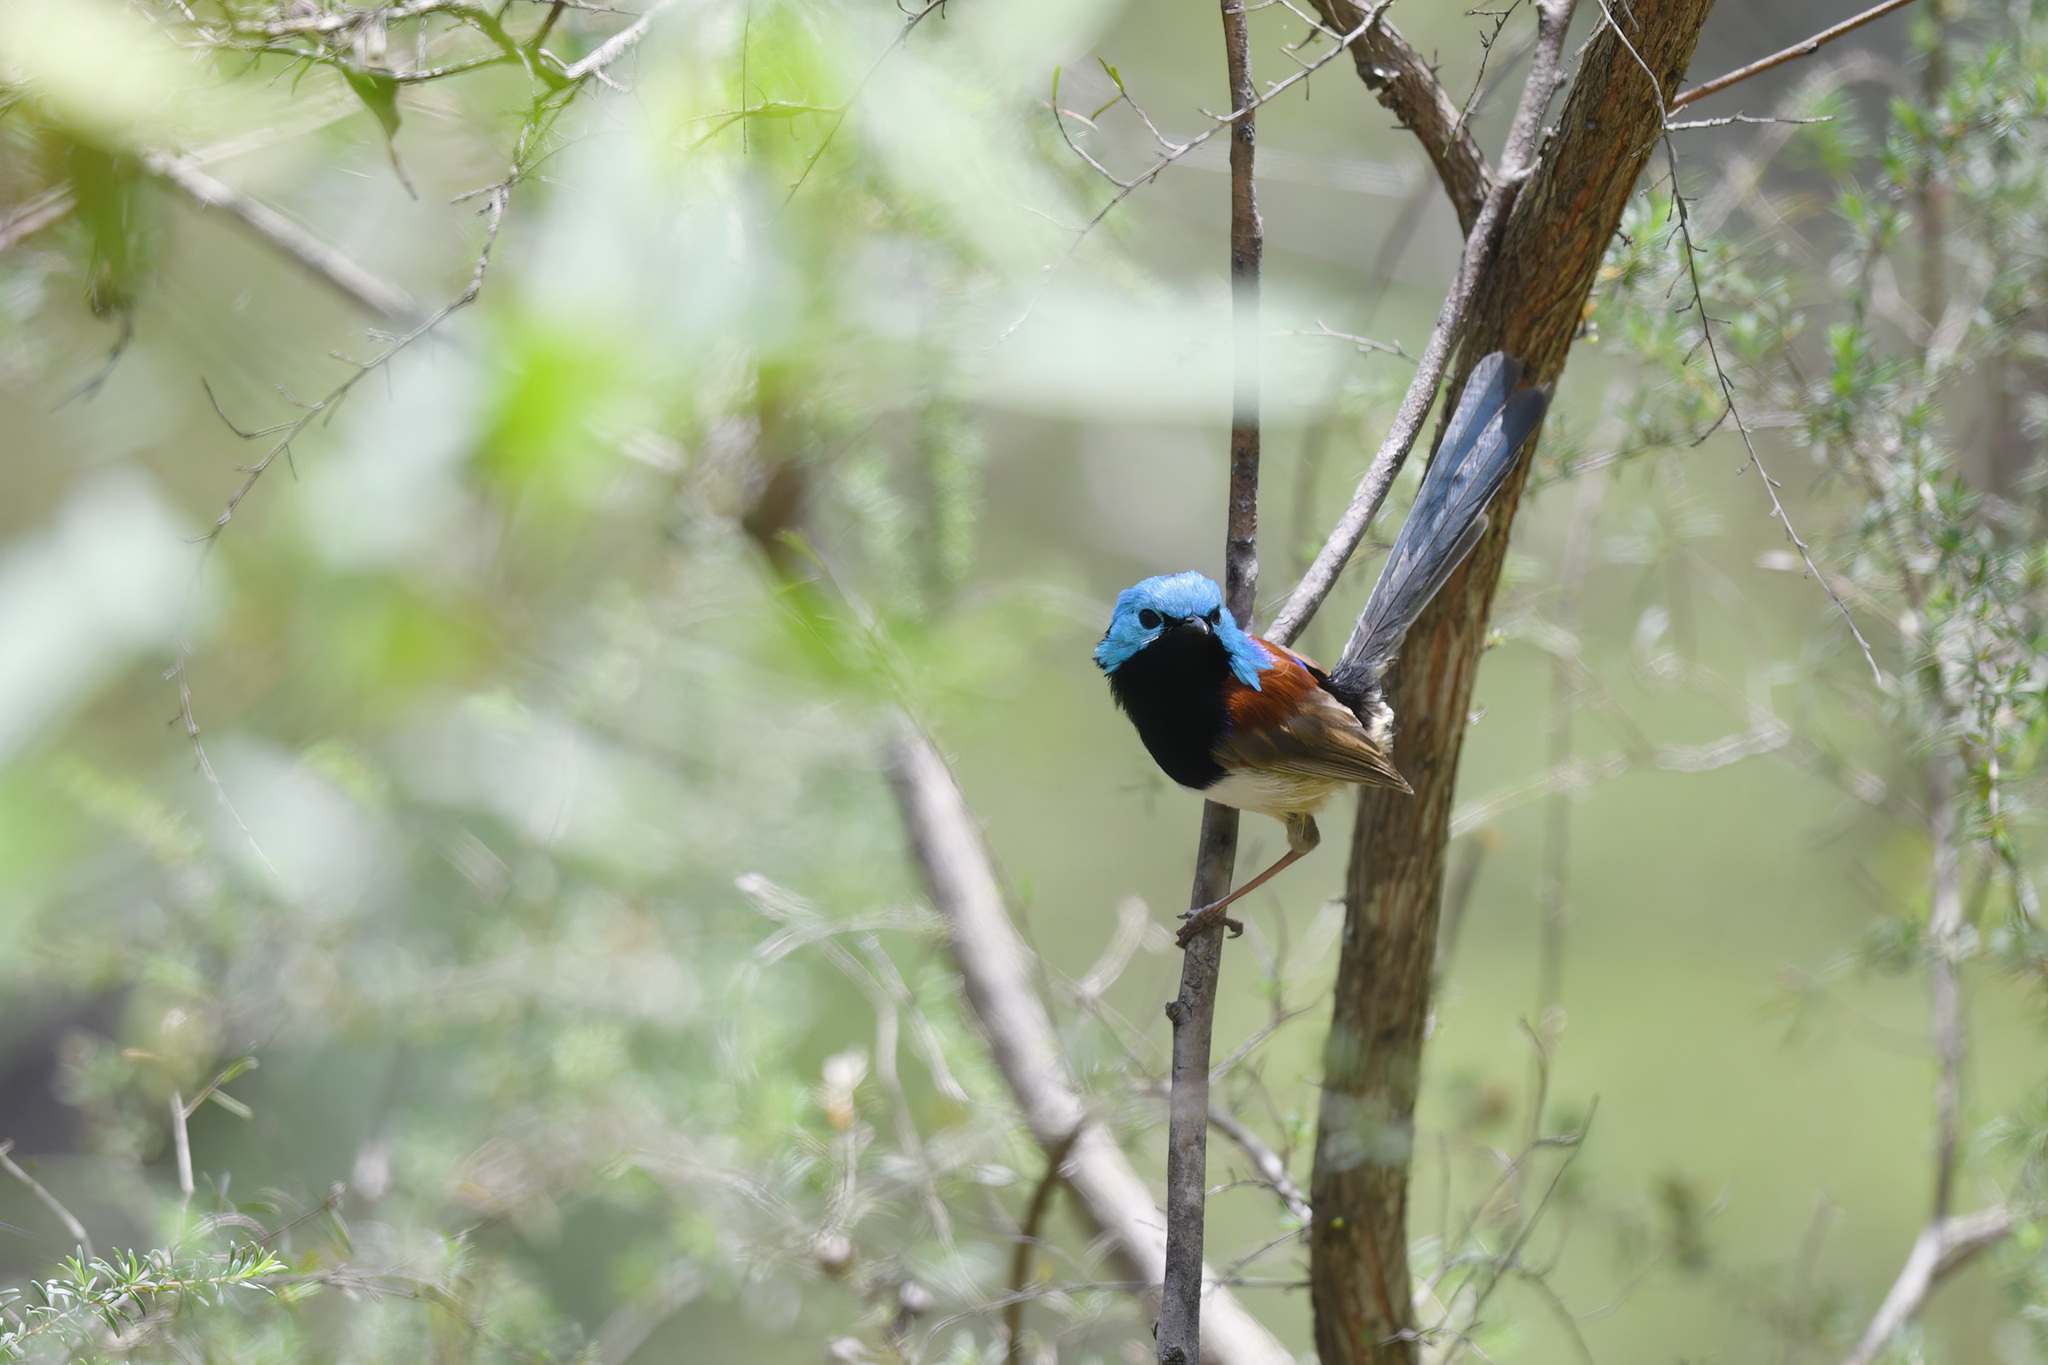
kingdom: Animalia
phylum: Chordata
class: Aves
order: Passeriformes
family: Maluridae
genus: Malurus
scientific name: Malurus lamberti
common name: Variegated fairywren
